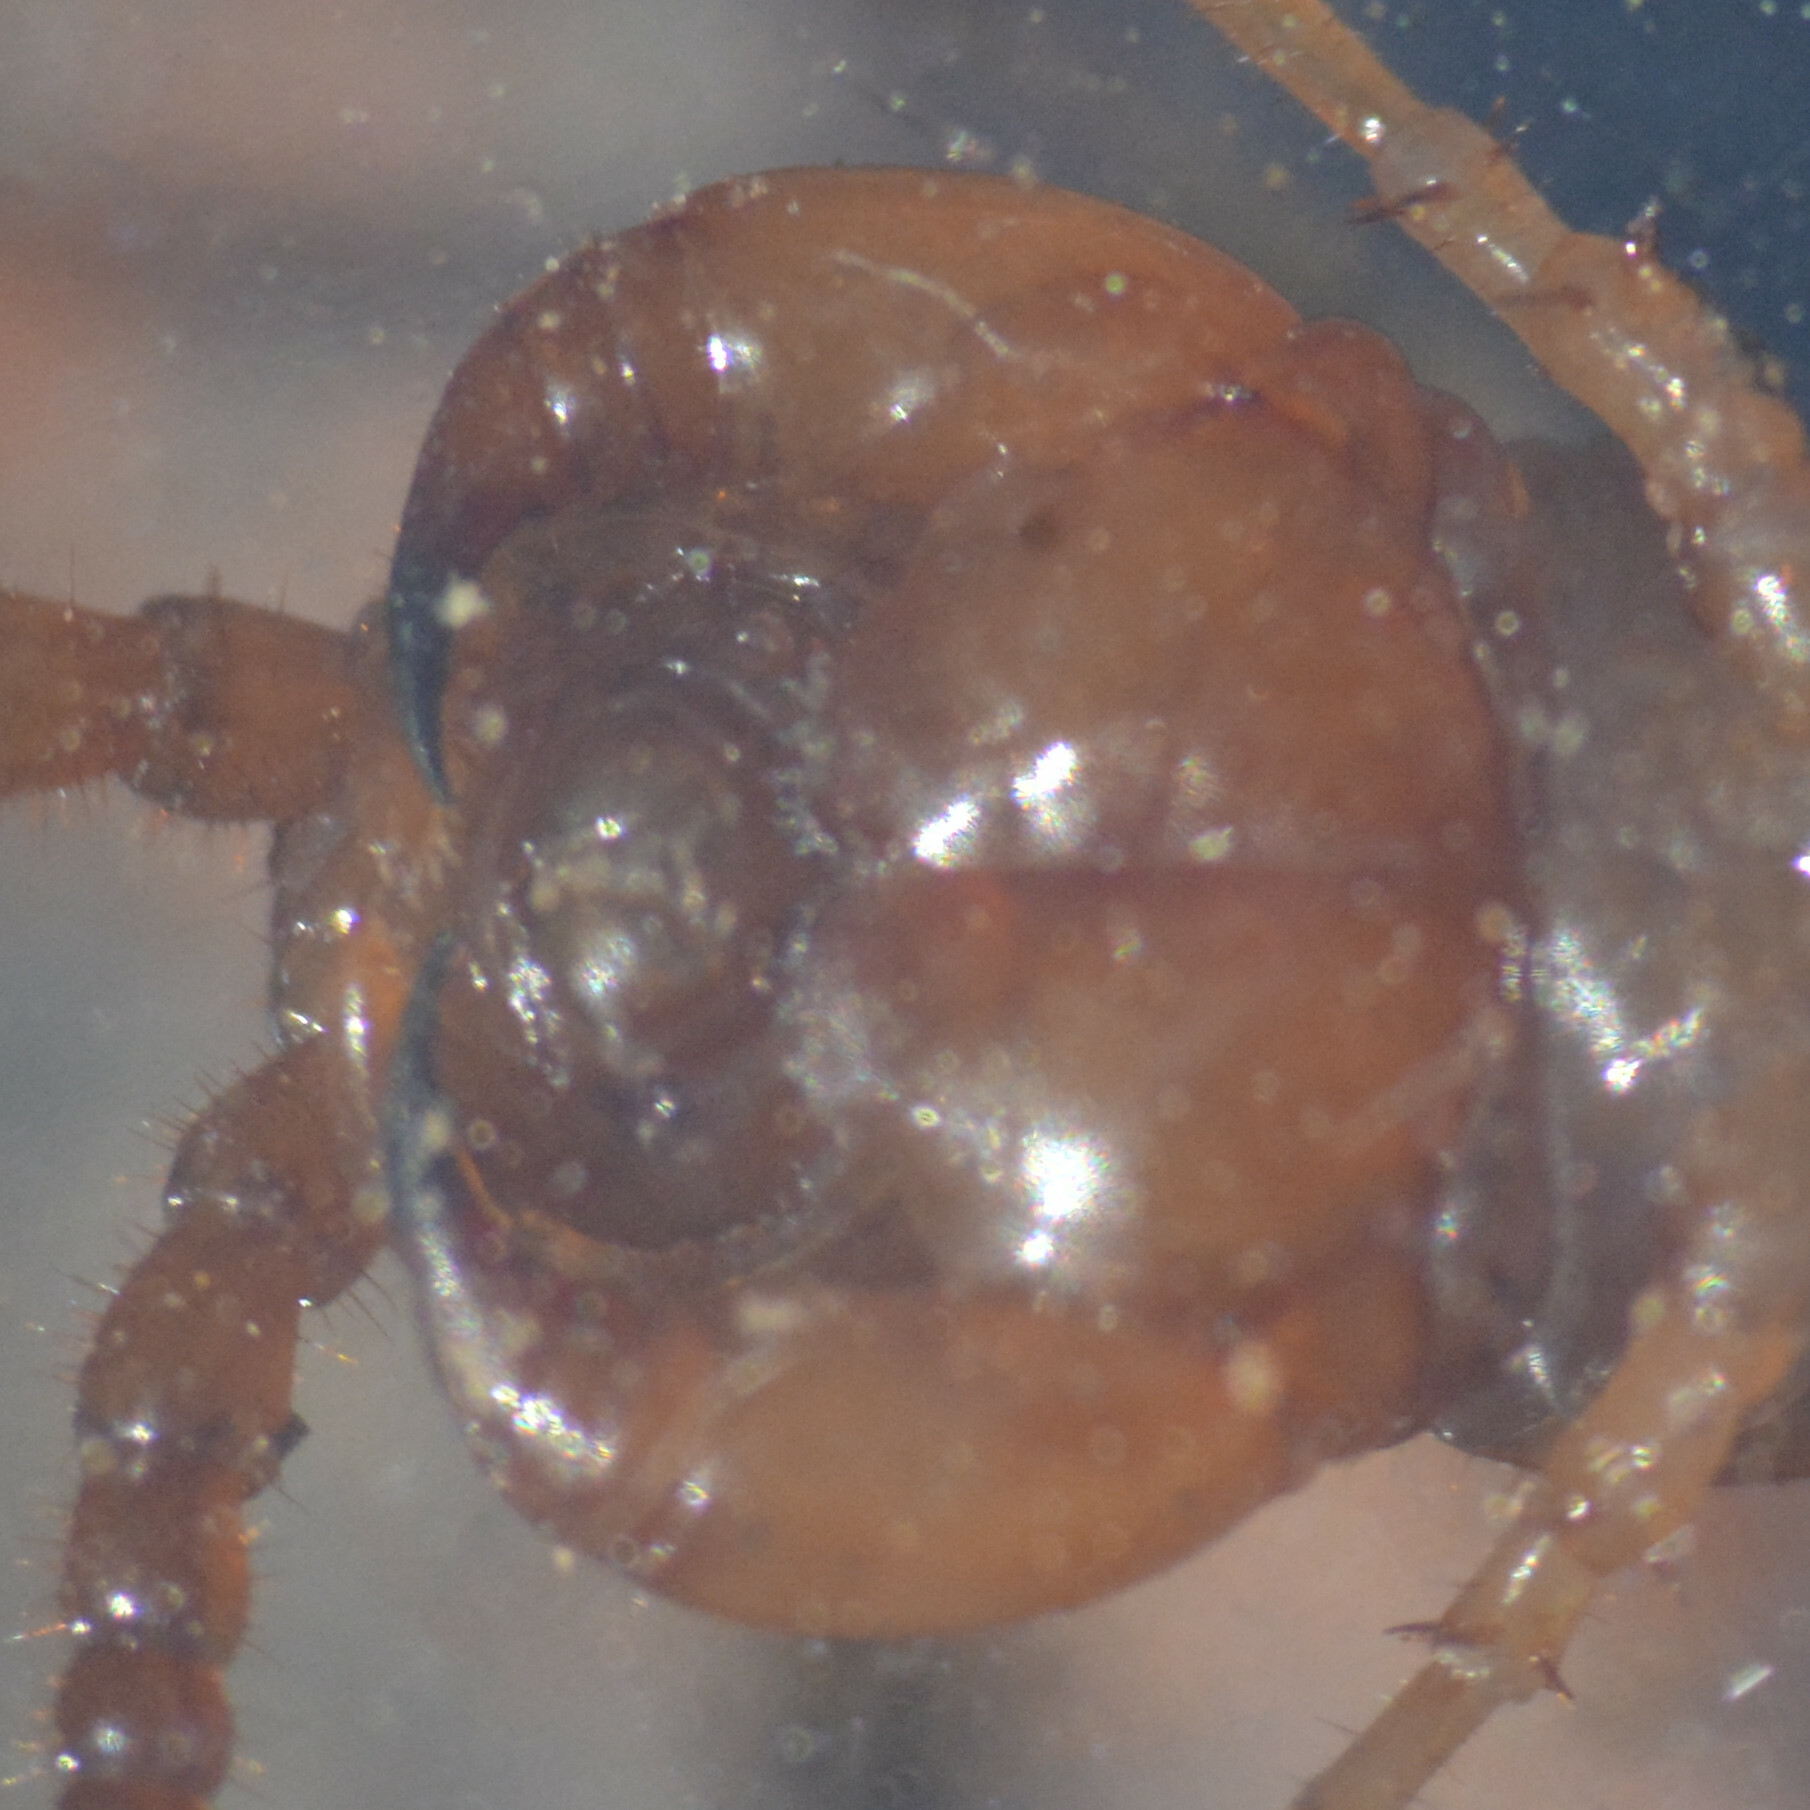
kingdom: Animalia
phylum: Arthropoda
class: Chilopoda
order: Lithobiomorpha
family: Lithobiidae
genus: Lithobius
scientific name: Lithobius forficatus
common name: Centipede
